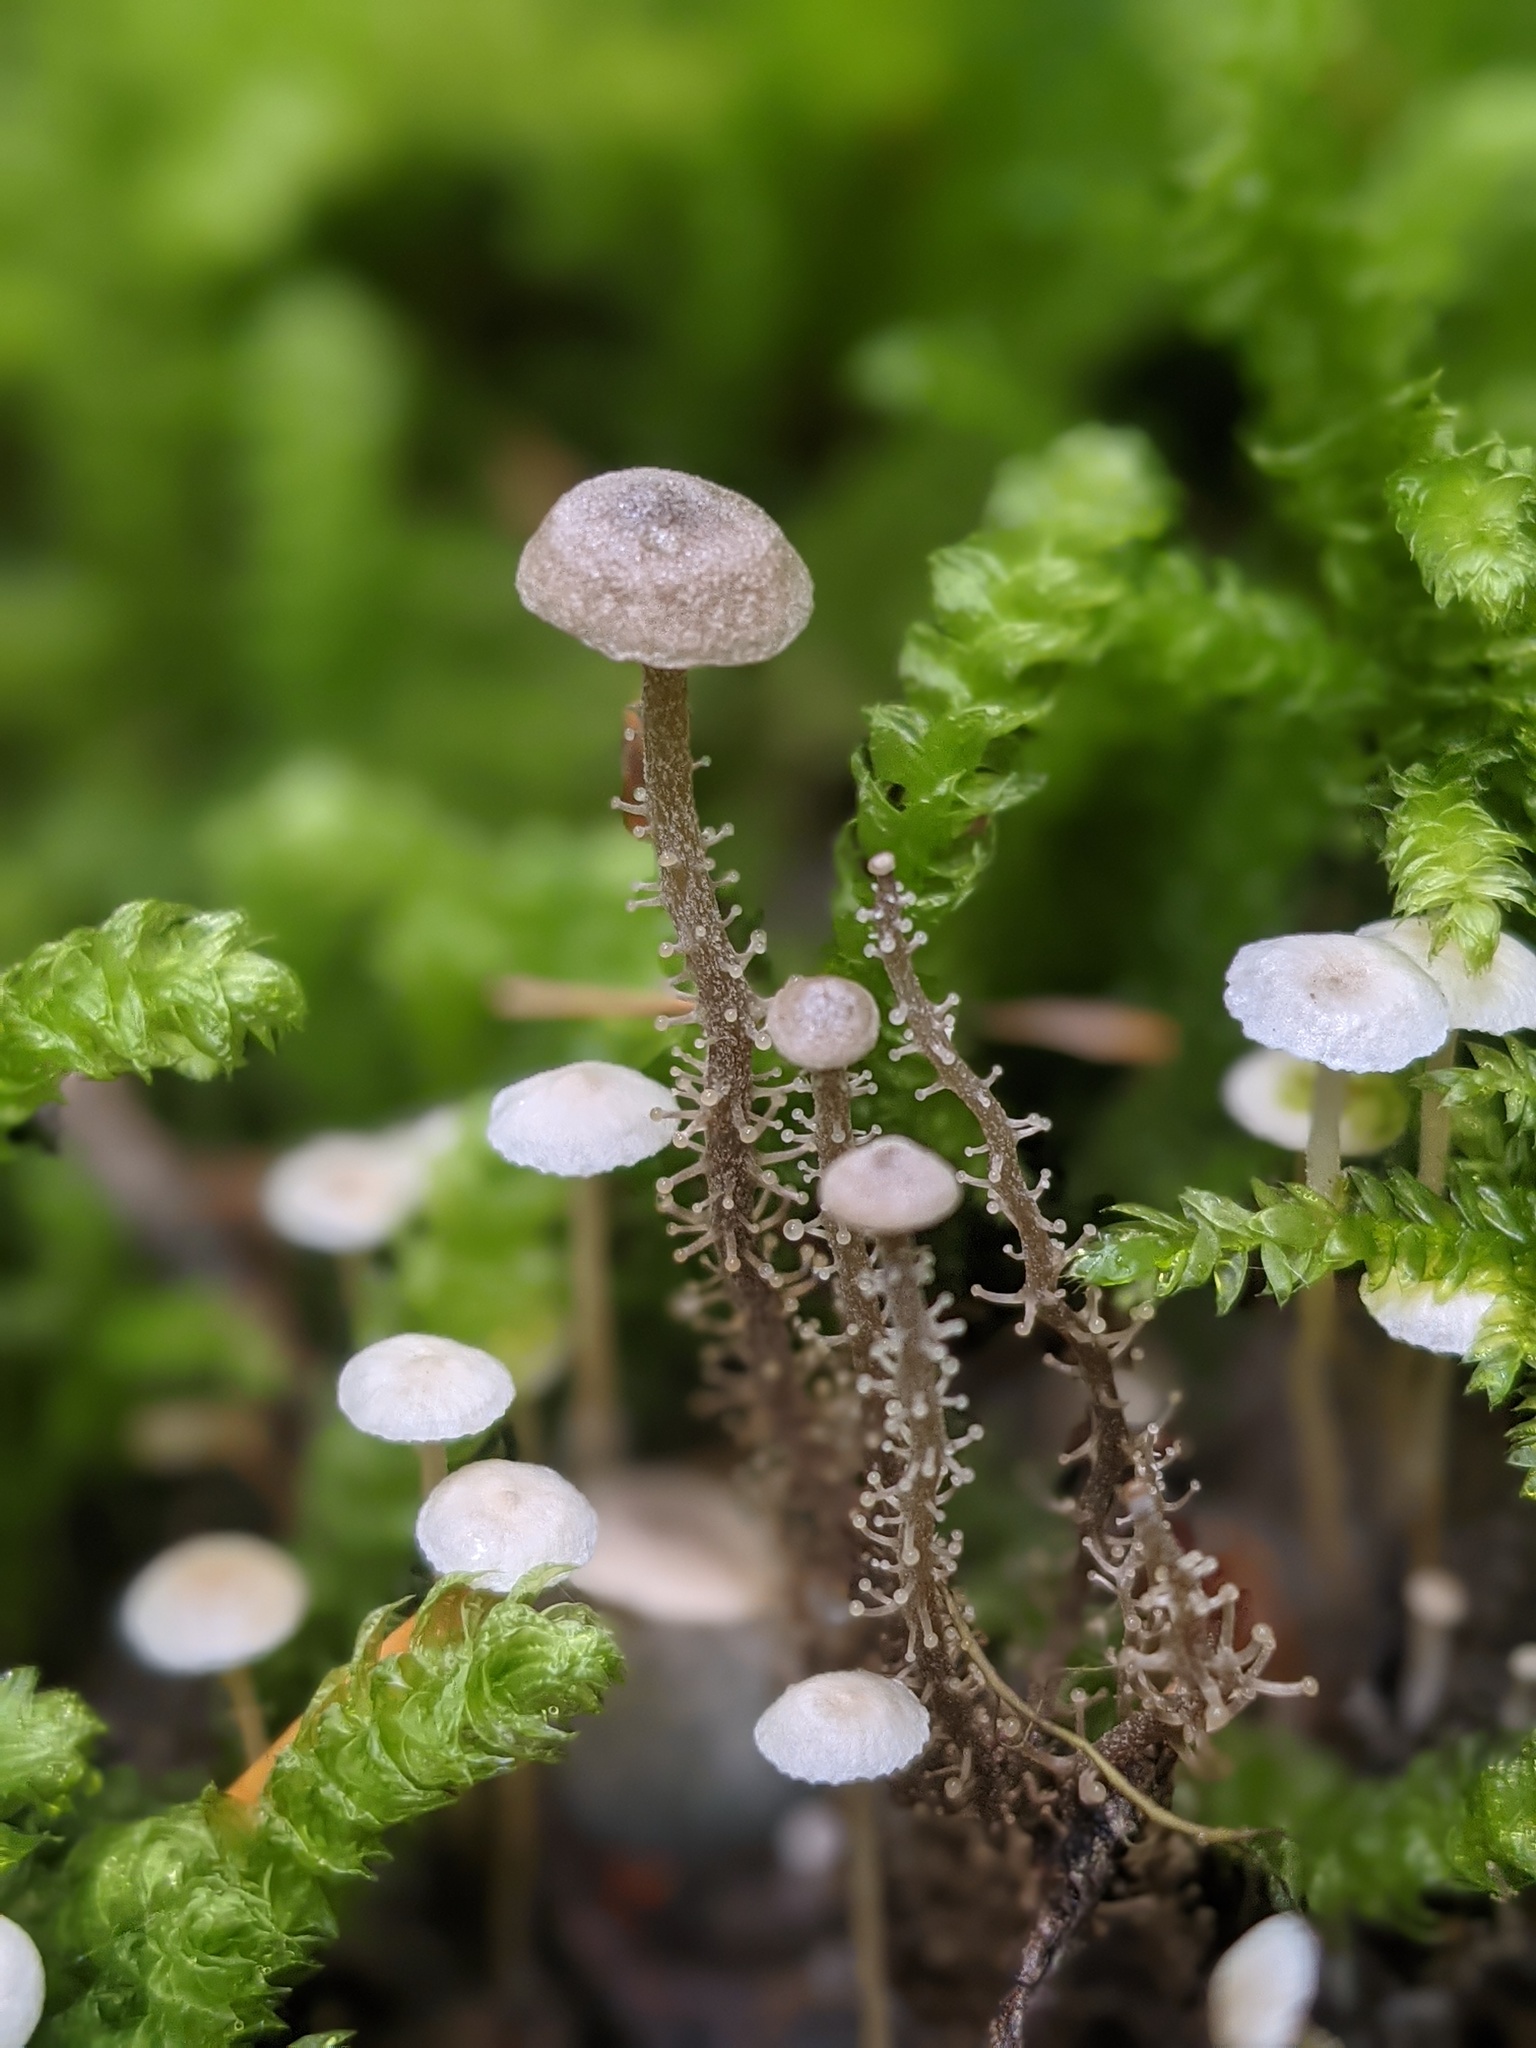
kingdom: Fungi
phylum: Basidiomycota
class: Agaricomycetes
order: Agaricales
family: Tricholomataceae
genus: Dendrocollybia
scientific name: Dendrocollybia racemosa
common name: Branched shanklet
